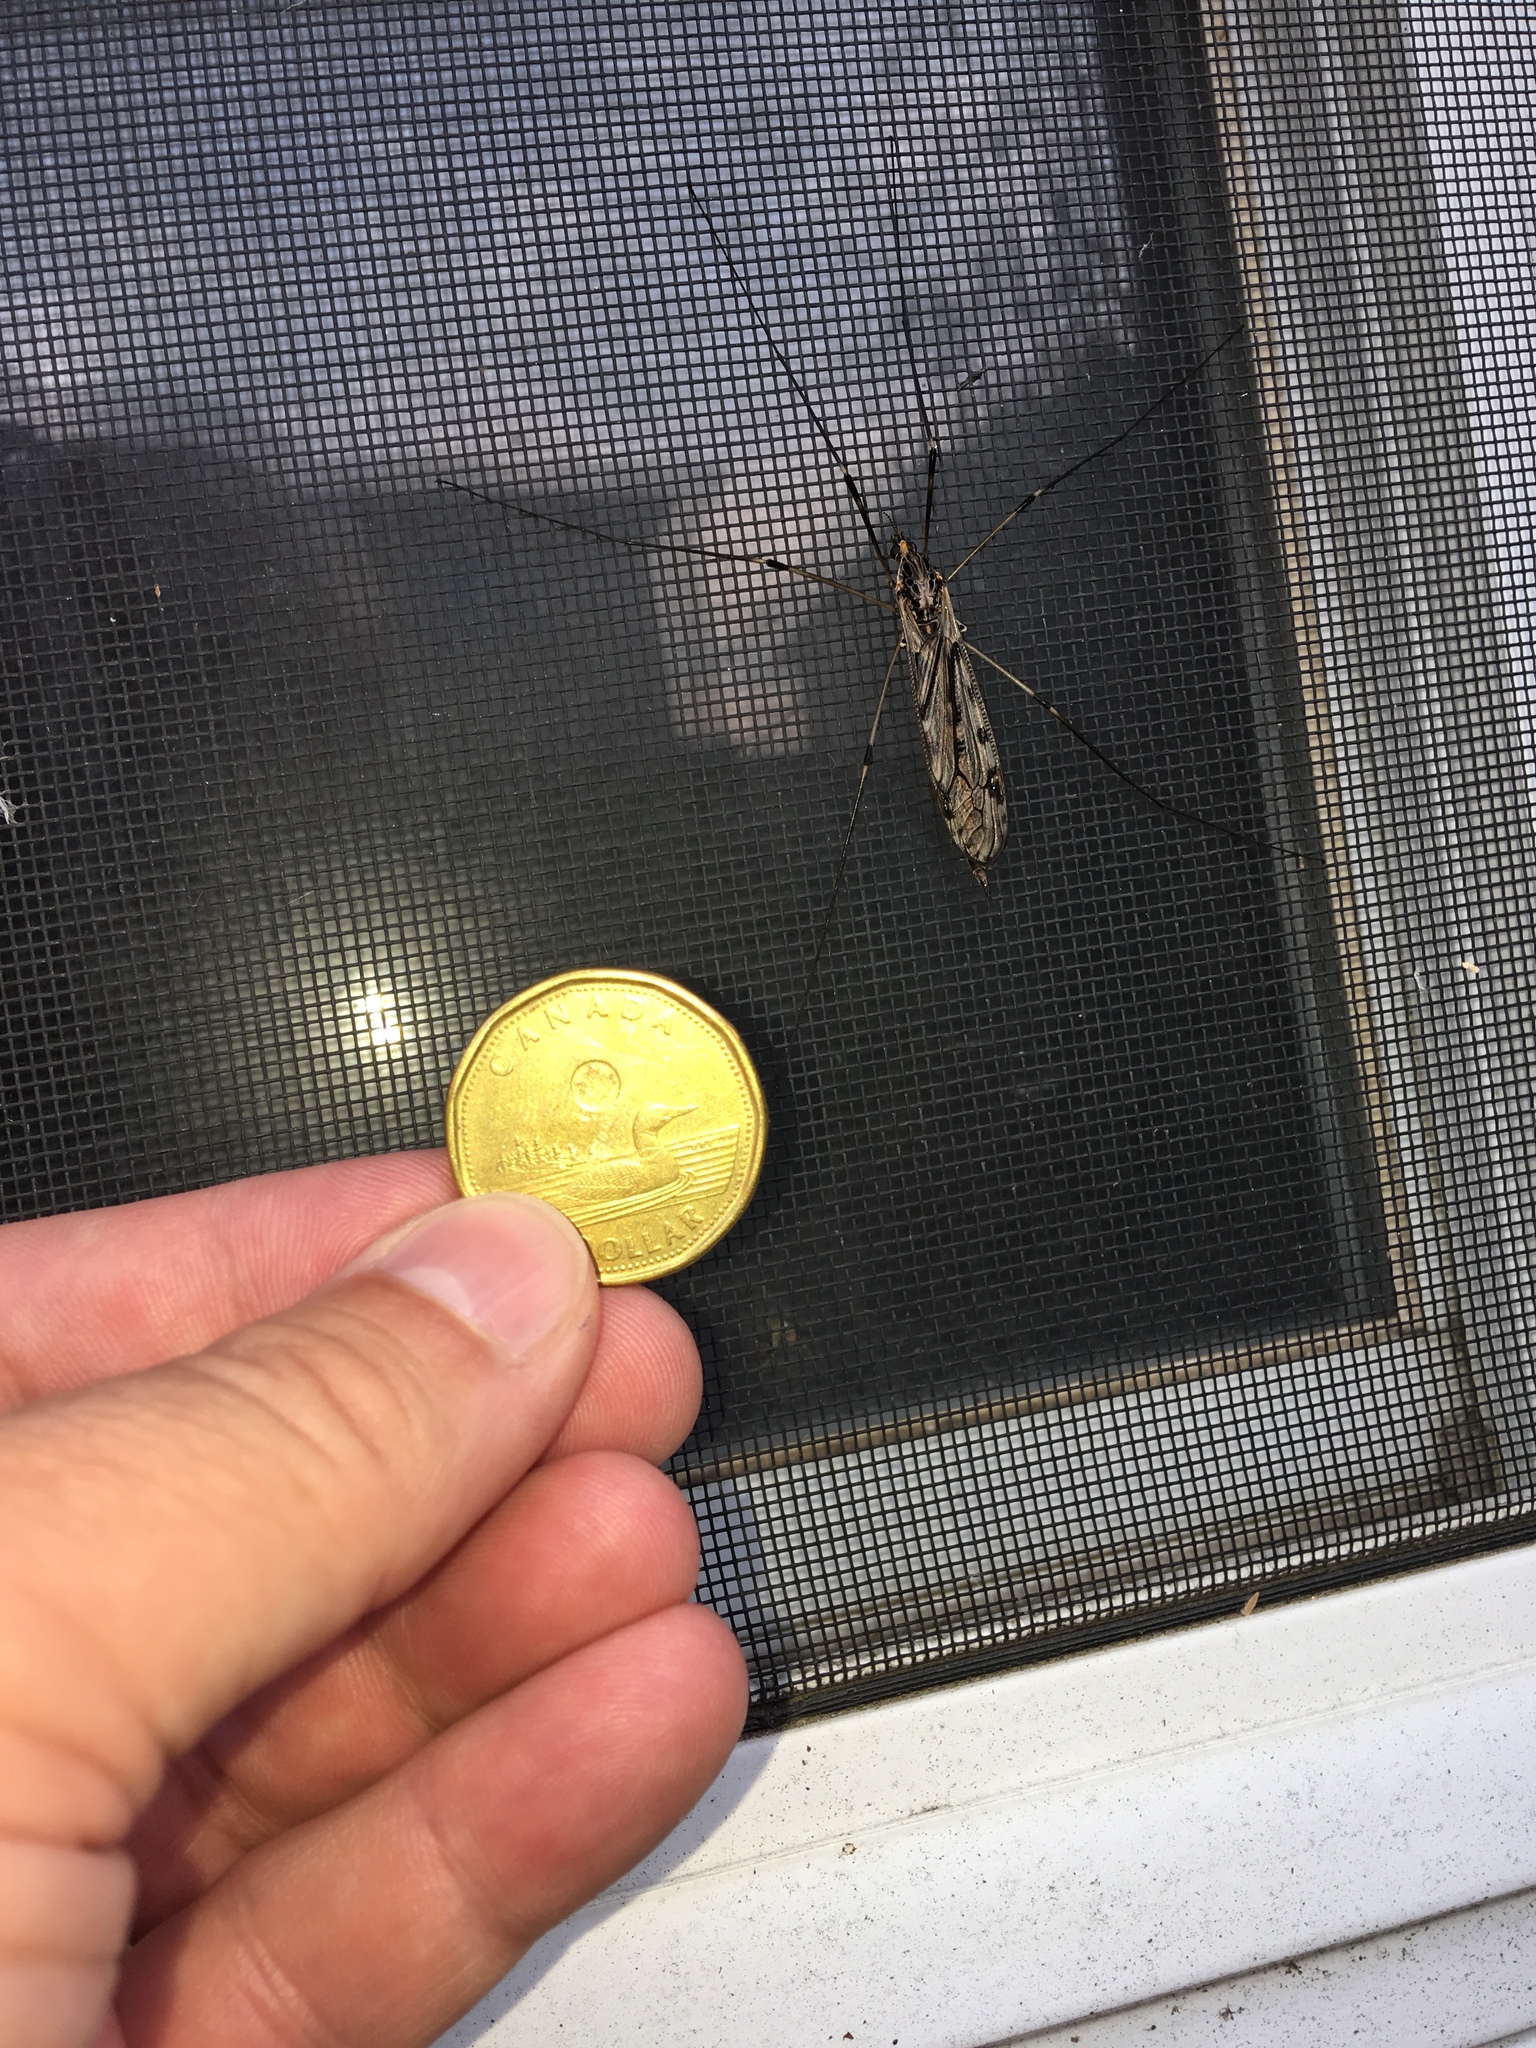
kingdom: Animalia
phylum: Arthropoda
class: Insecta
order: Diptera
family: Tipulidae
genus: Tipula
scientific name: Tipula abdominalis
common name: Giant crane fly
